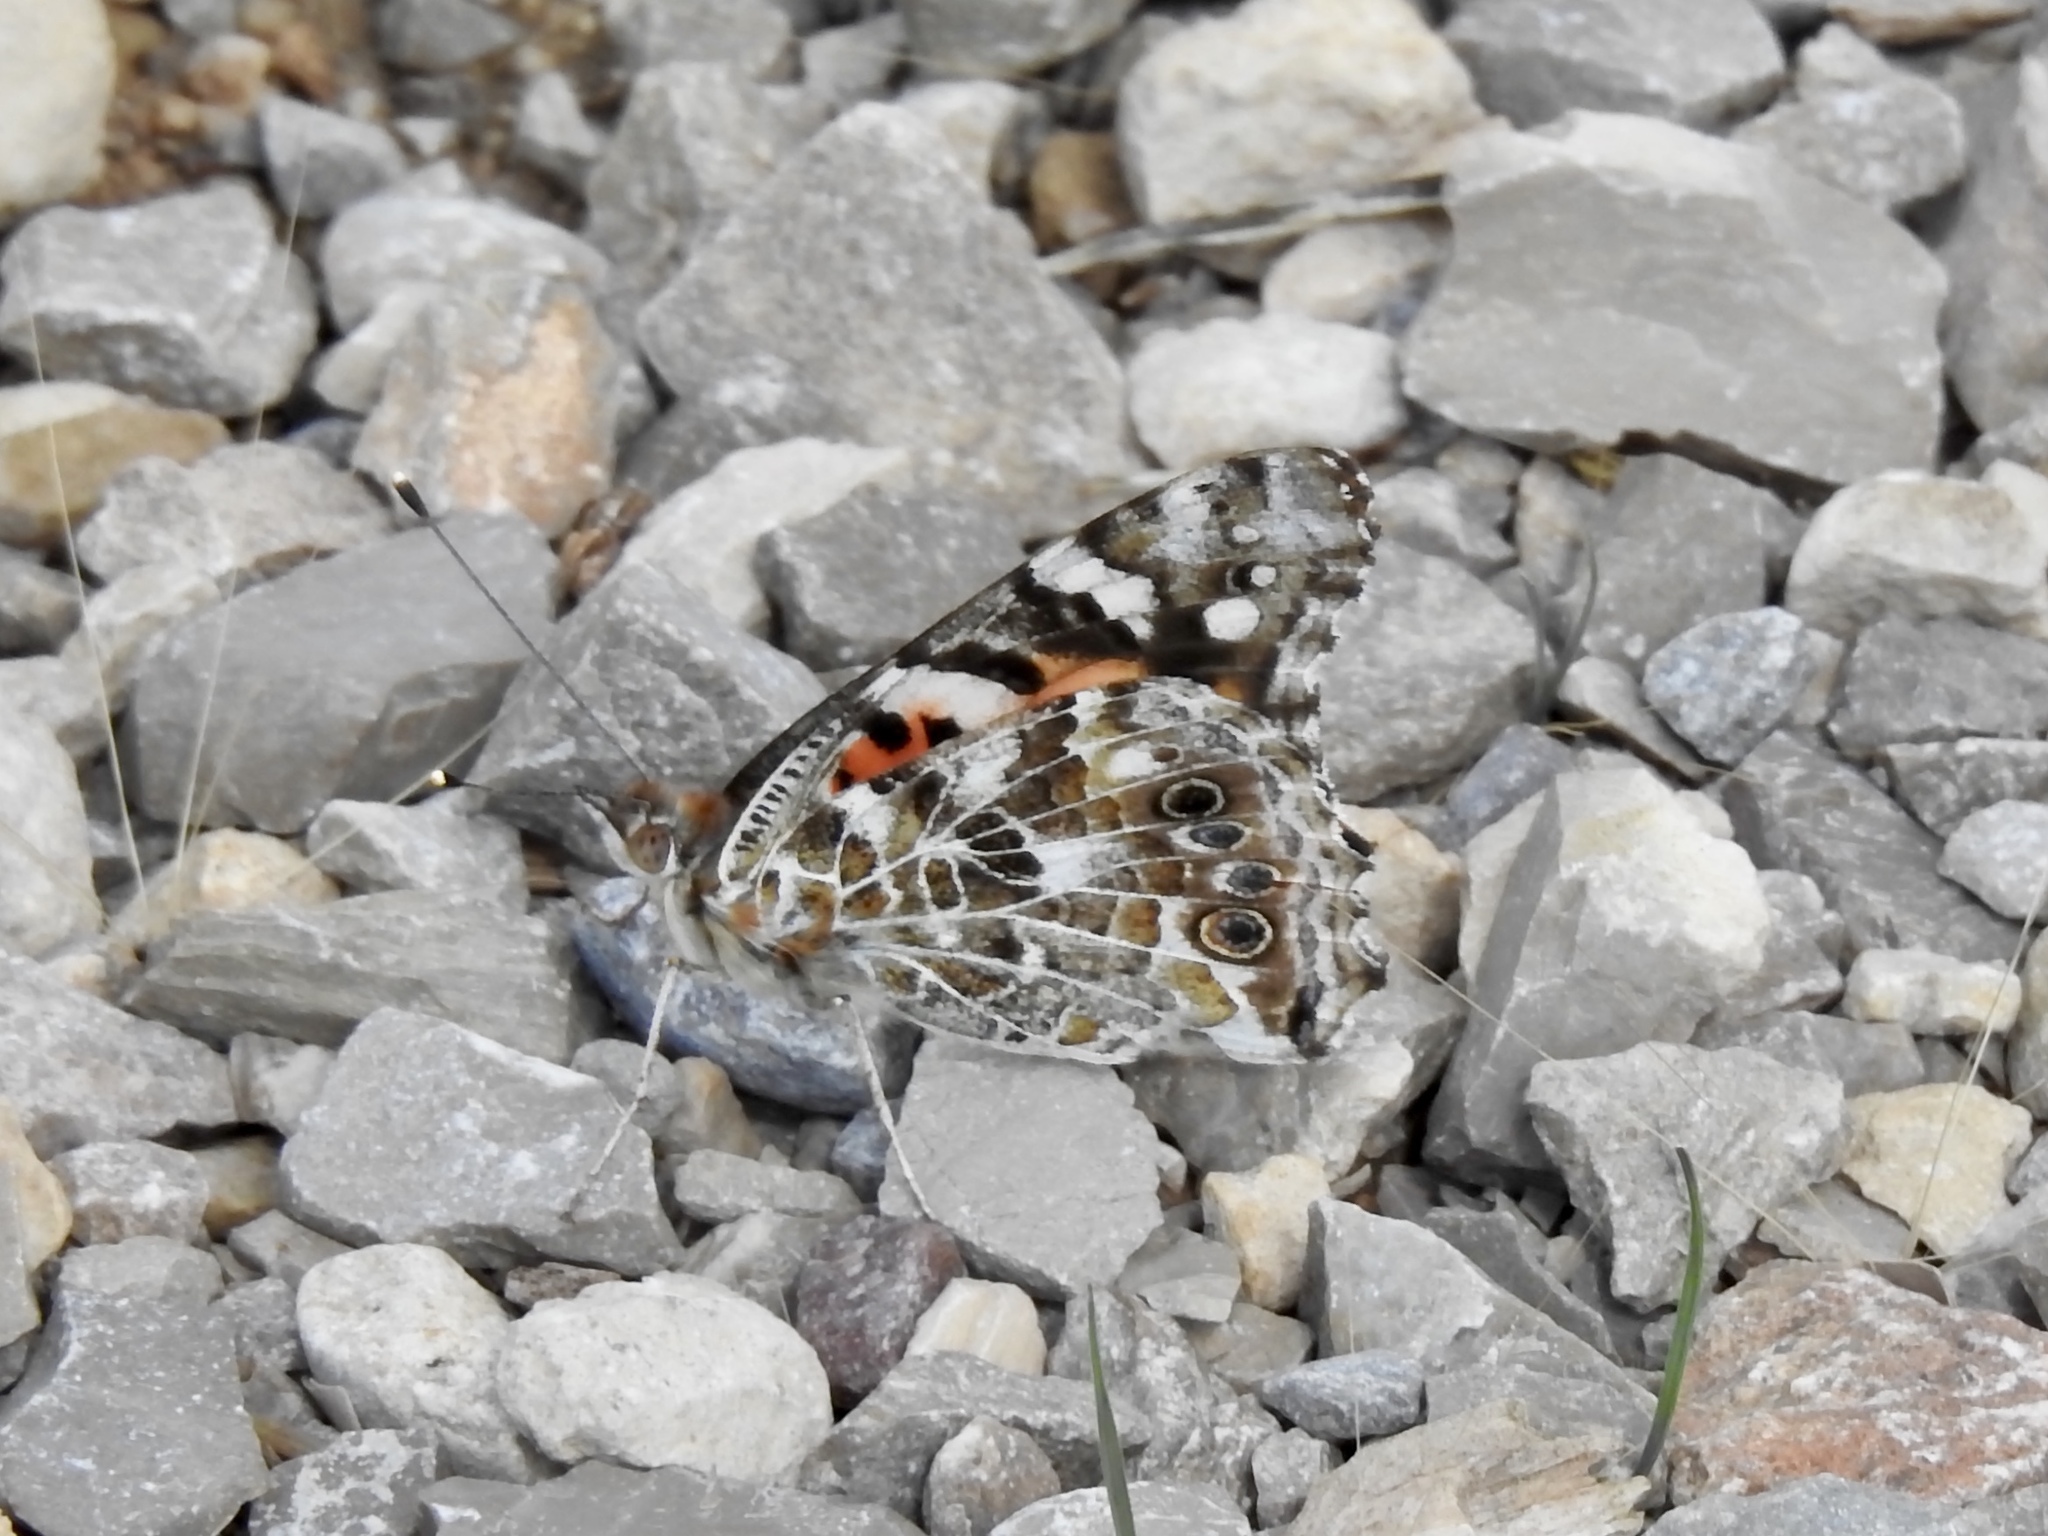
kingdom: Animalia
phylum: Arthropoda
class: Insecta
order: Lepidoptera
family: Nymphalidae
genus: Vanessa
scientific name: Vanessa cardui
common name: Painted lady
